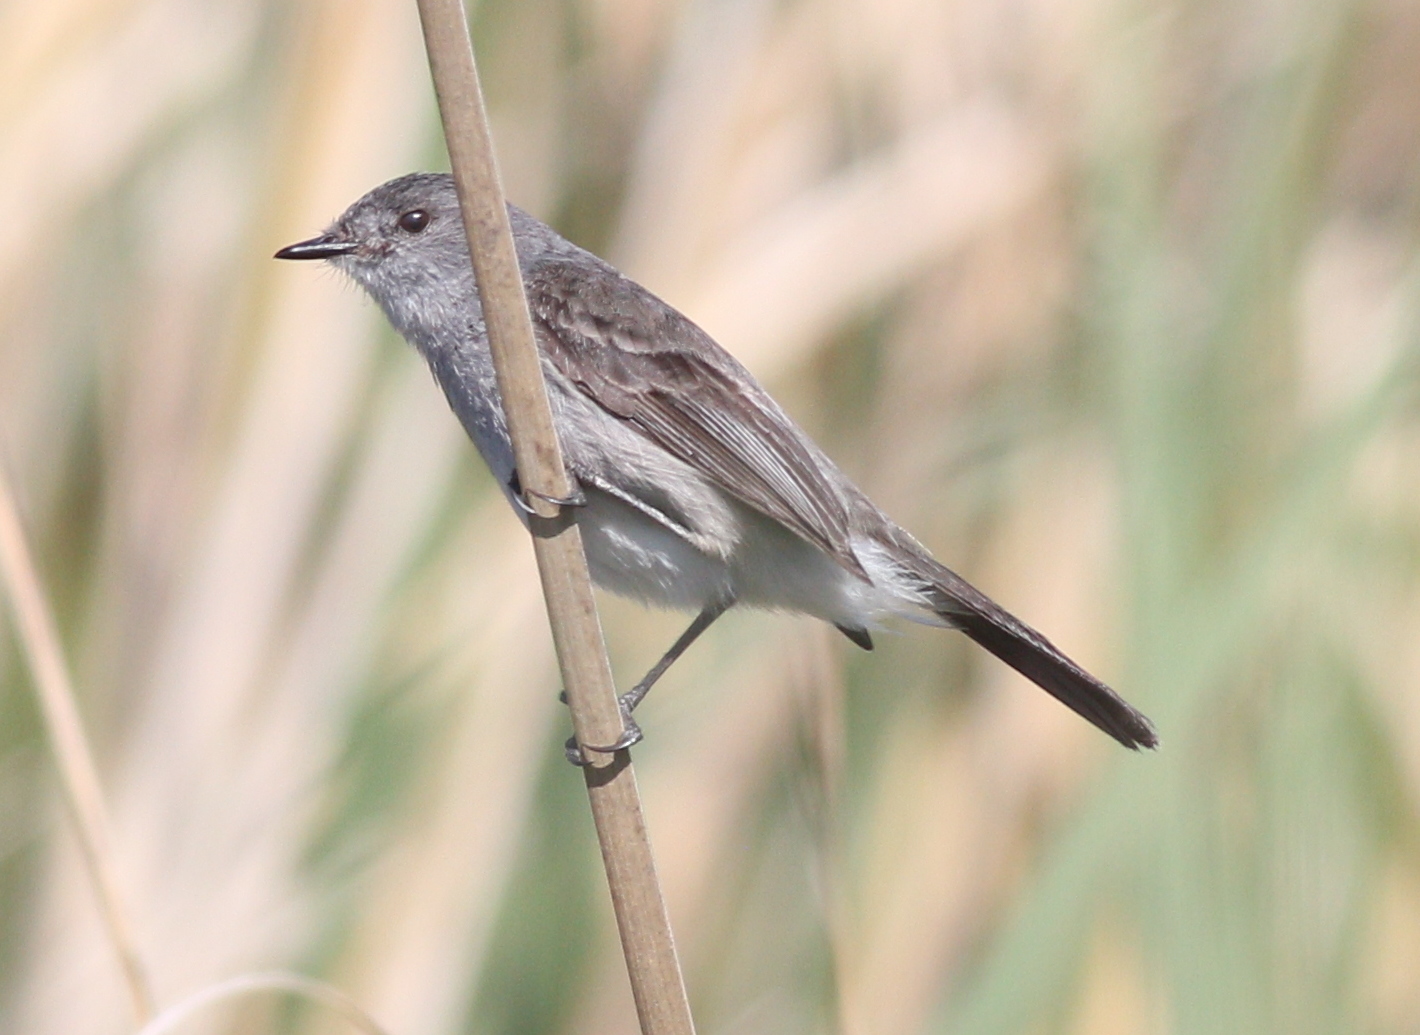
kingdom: Animalia
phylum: Chordata
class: Aves
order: Passeriformes
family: Tyrannidae
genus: Serpophaga
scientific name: Serpophaga nigricans
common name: Sooty tyrannulet
